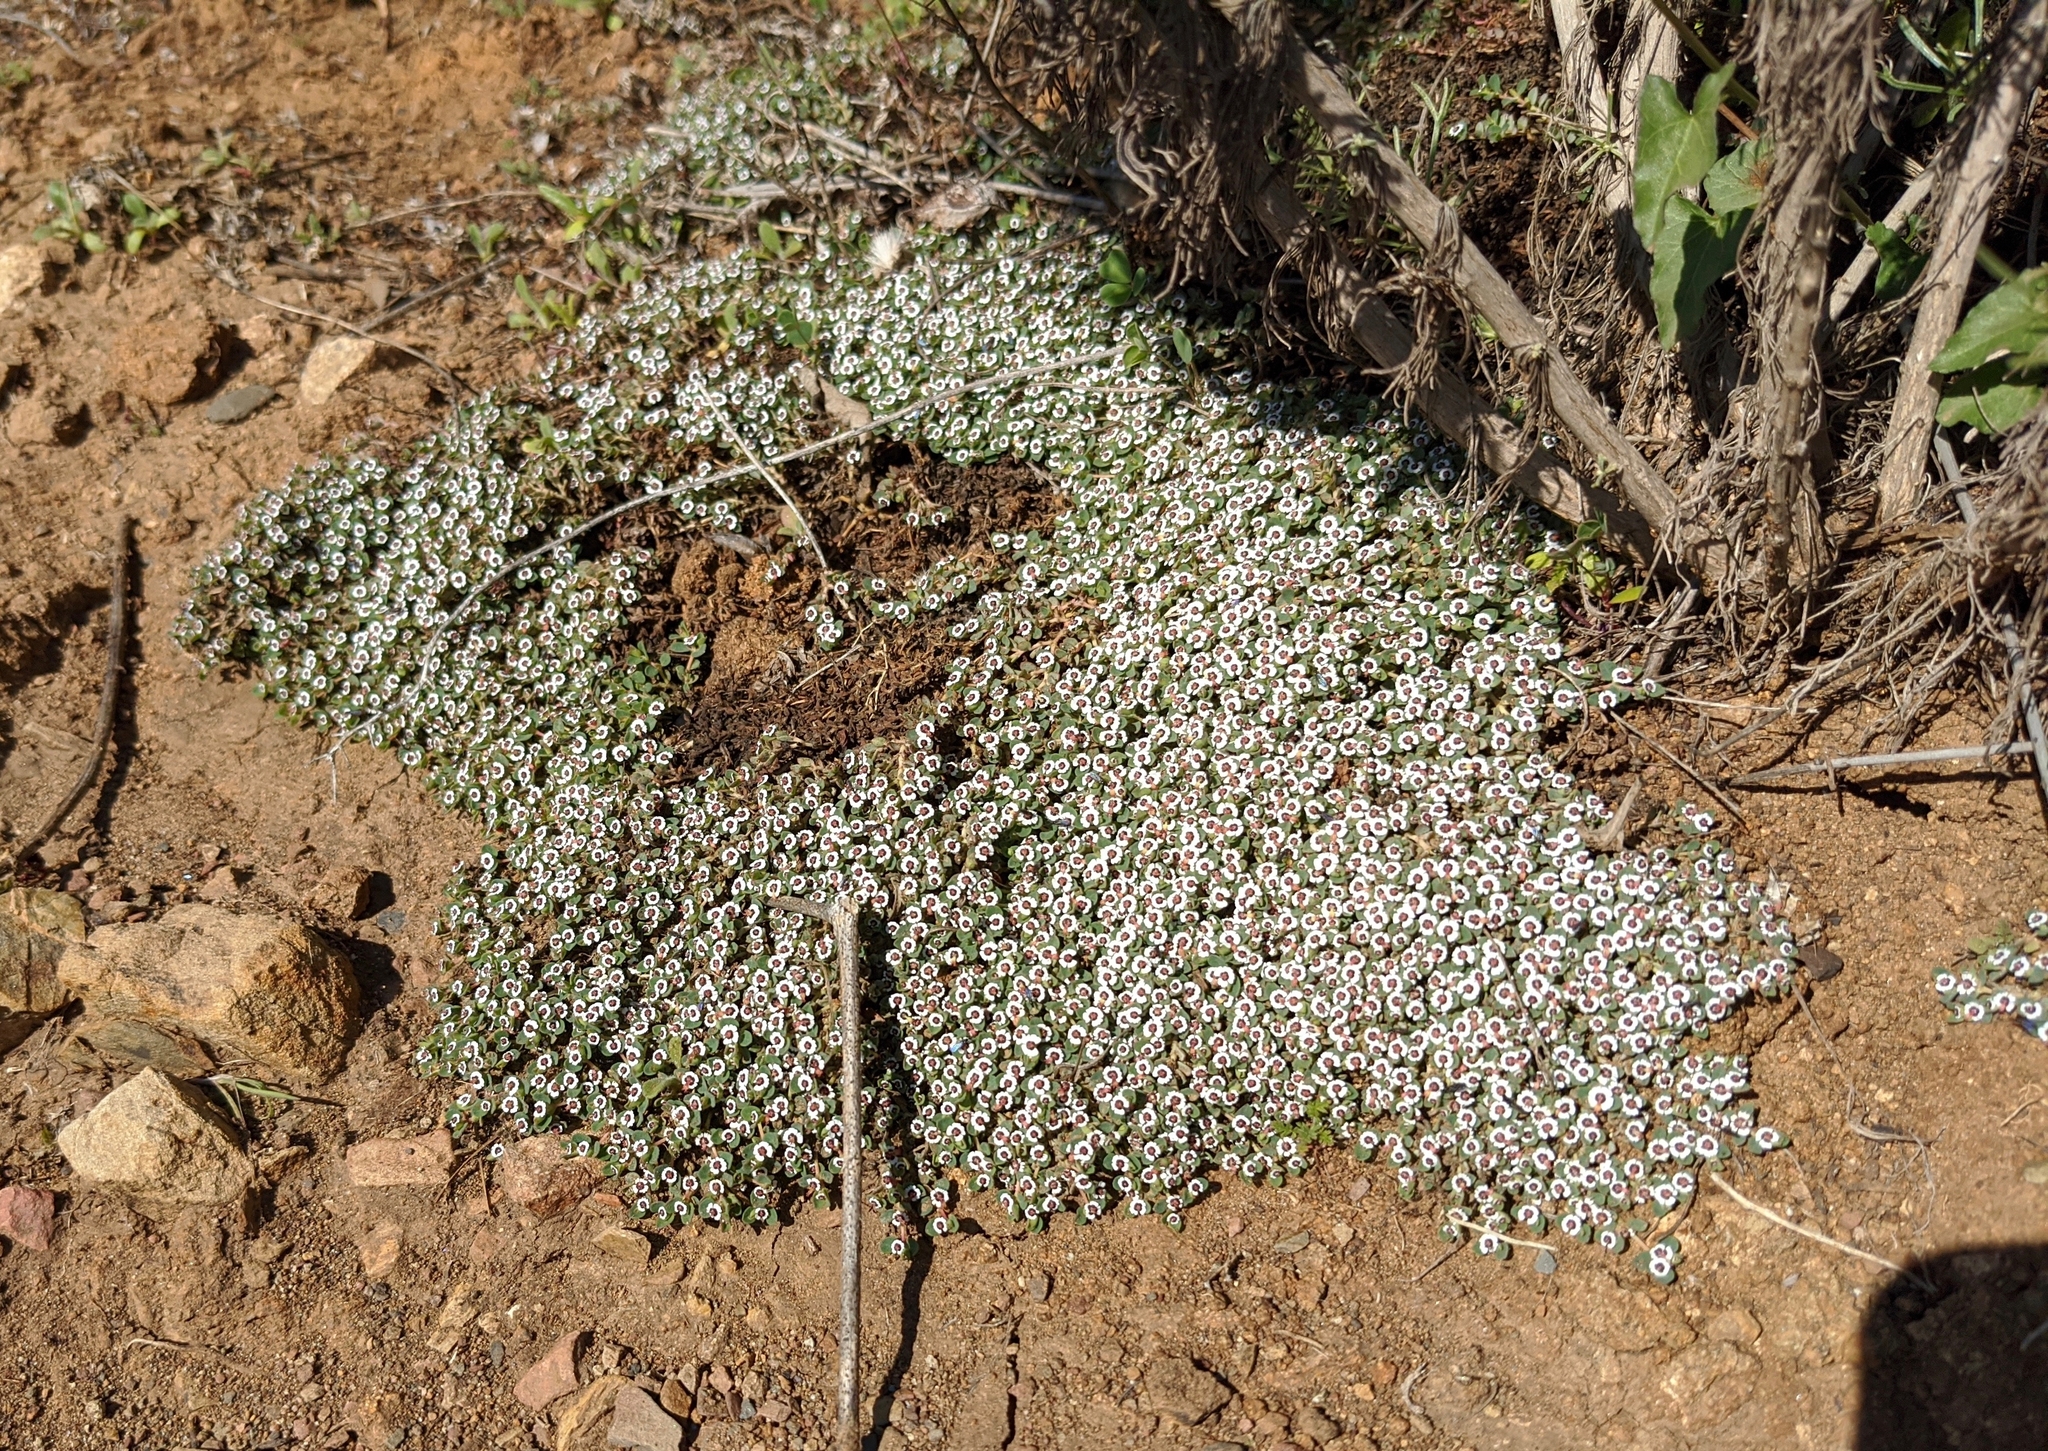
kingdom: Plantae
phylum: Tracheophyta
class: Magnoliopsida
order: Malpighiales
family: Euphorbiaceae
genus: Euphorbia
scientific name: Euphorbia polycarpa
